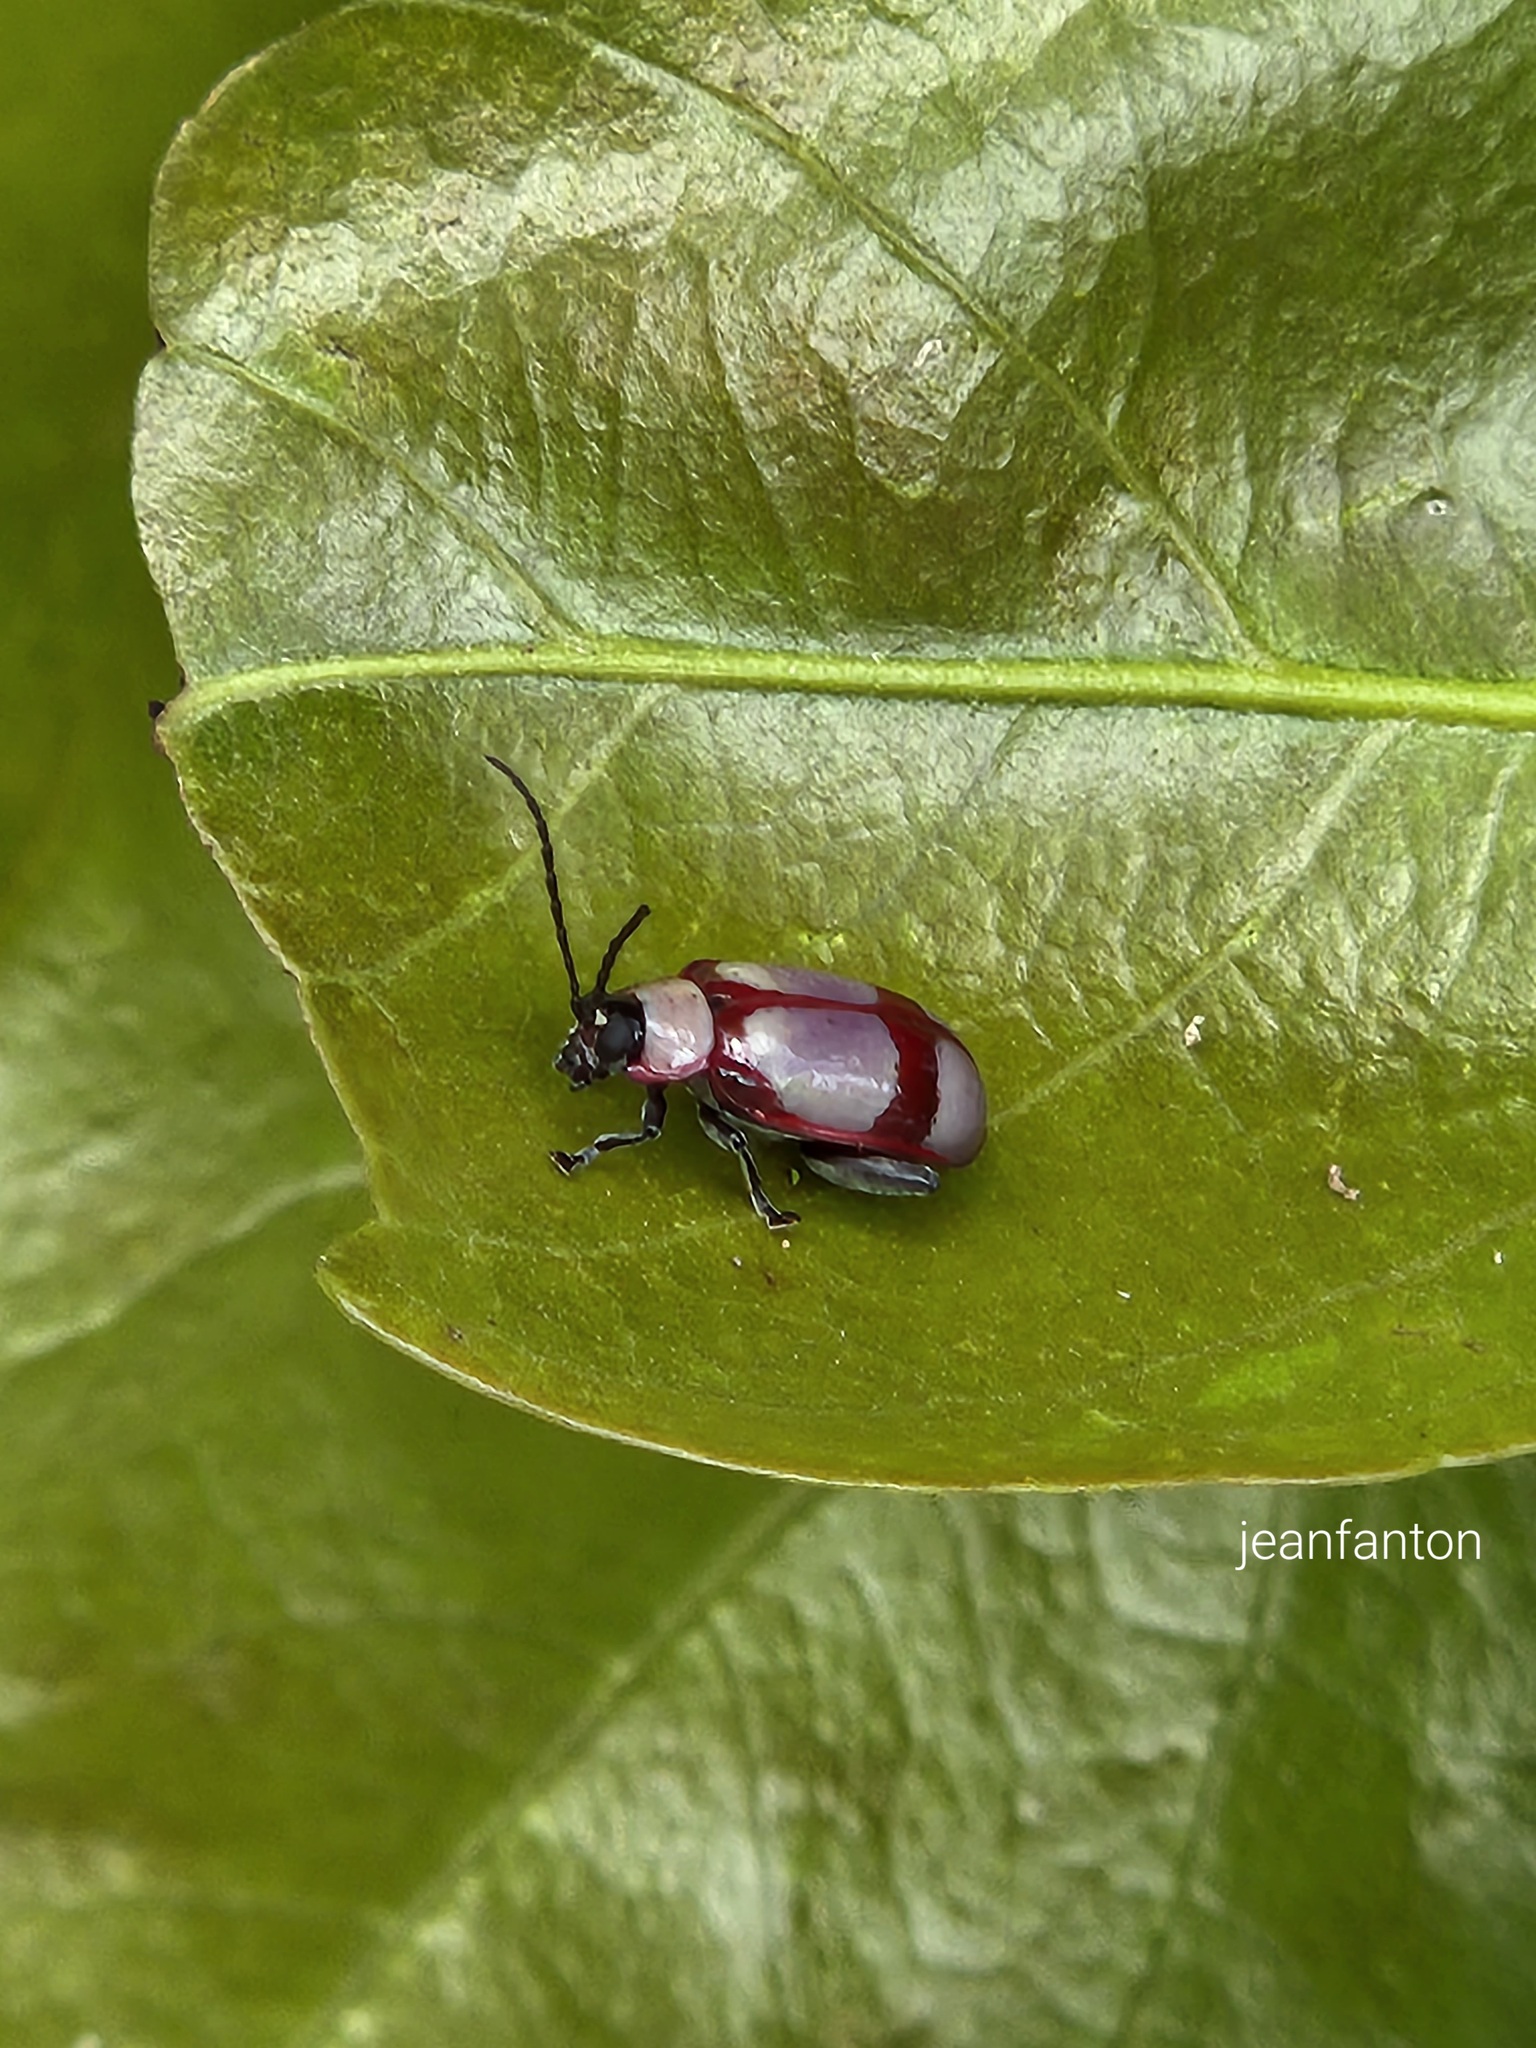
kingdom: Animalia
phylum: Arthropoda
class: Insecta
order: Coleoptera
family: Chrysomelidae
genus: Omophoita
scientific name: Omophoita
